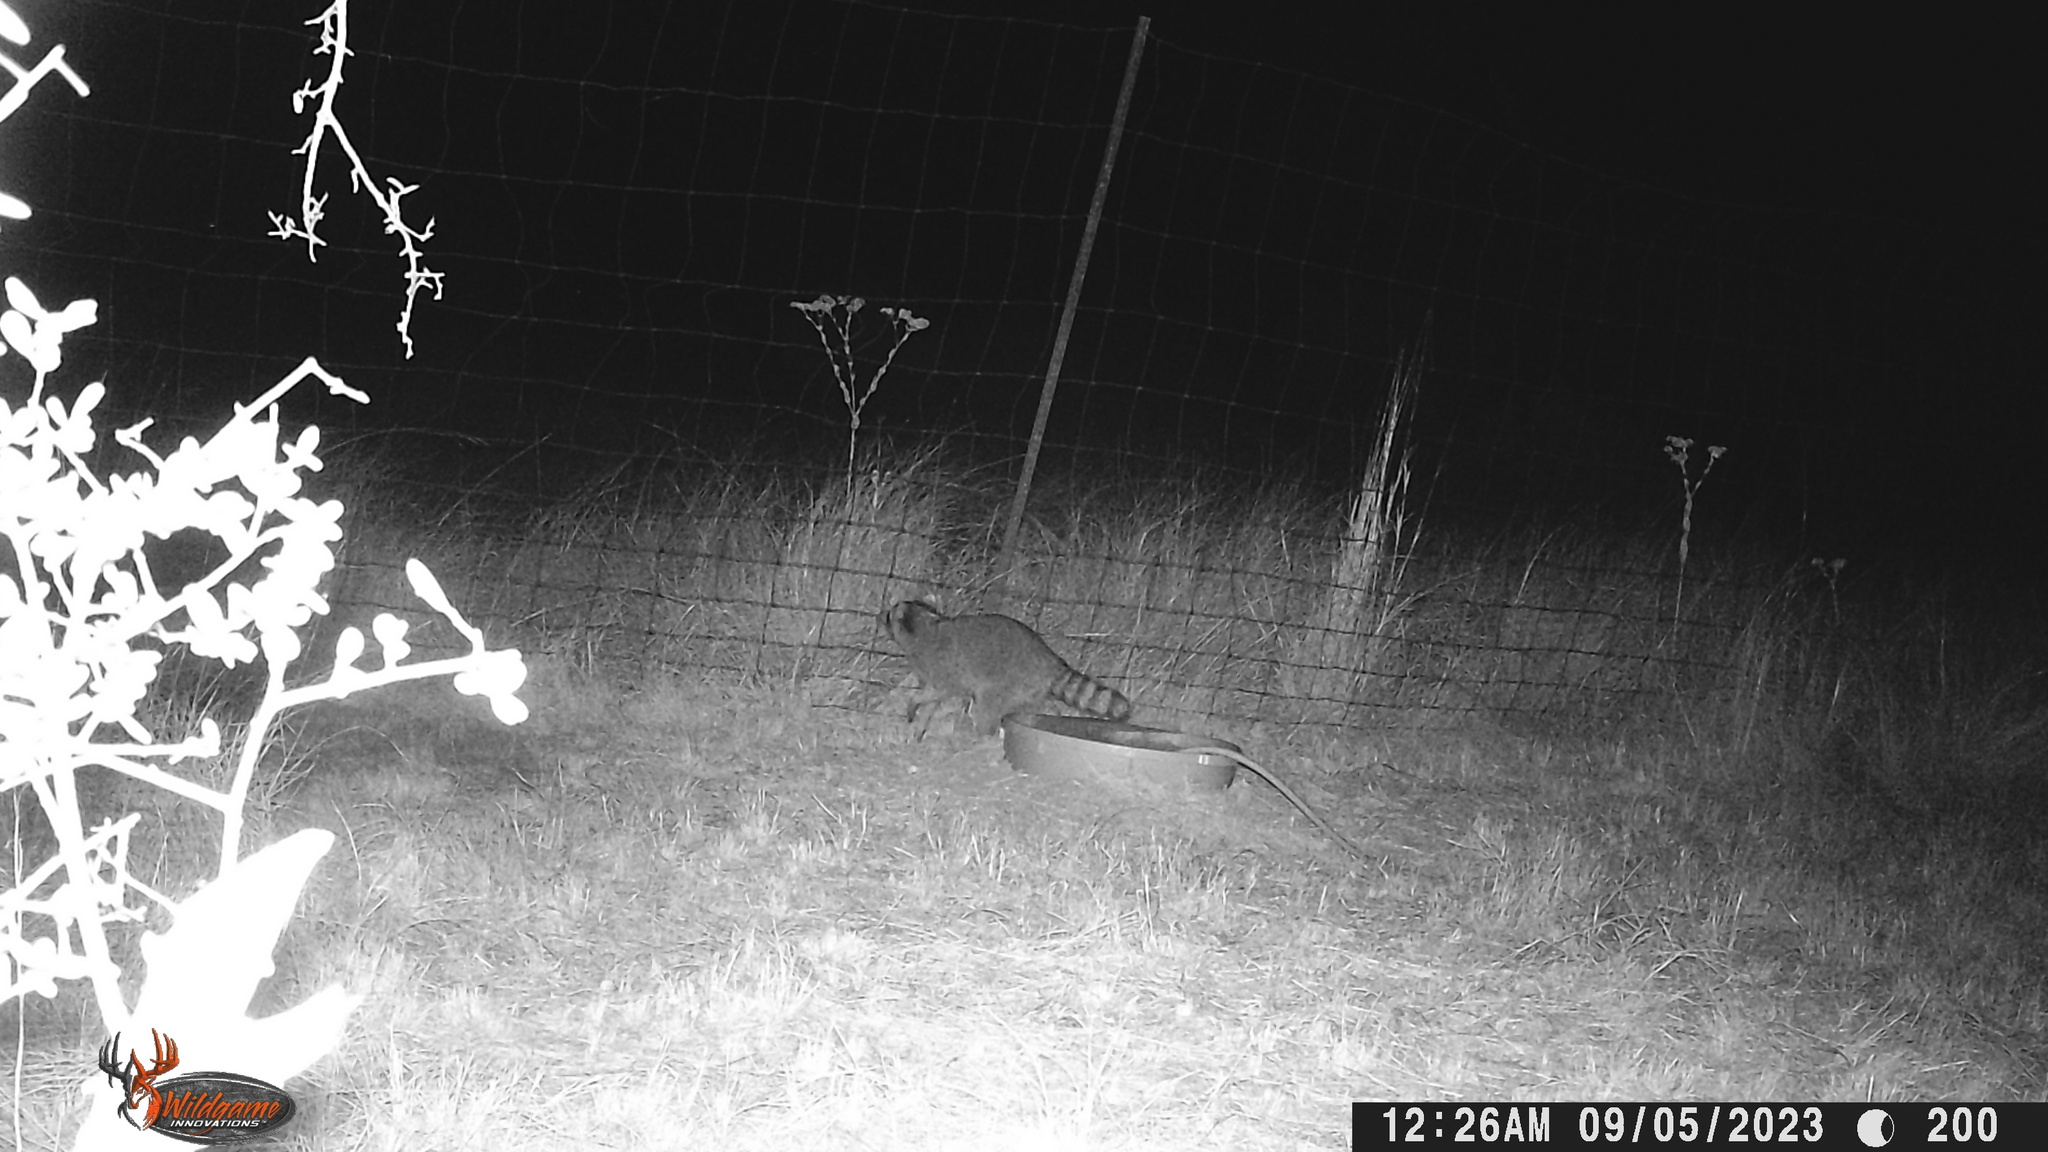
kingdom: Animalia
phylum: Chordata
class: Mammalia
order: Carnivora
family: Procyonidae
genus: Procyon
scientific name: Procyon lotor
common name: Raccoon
